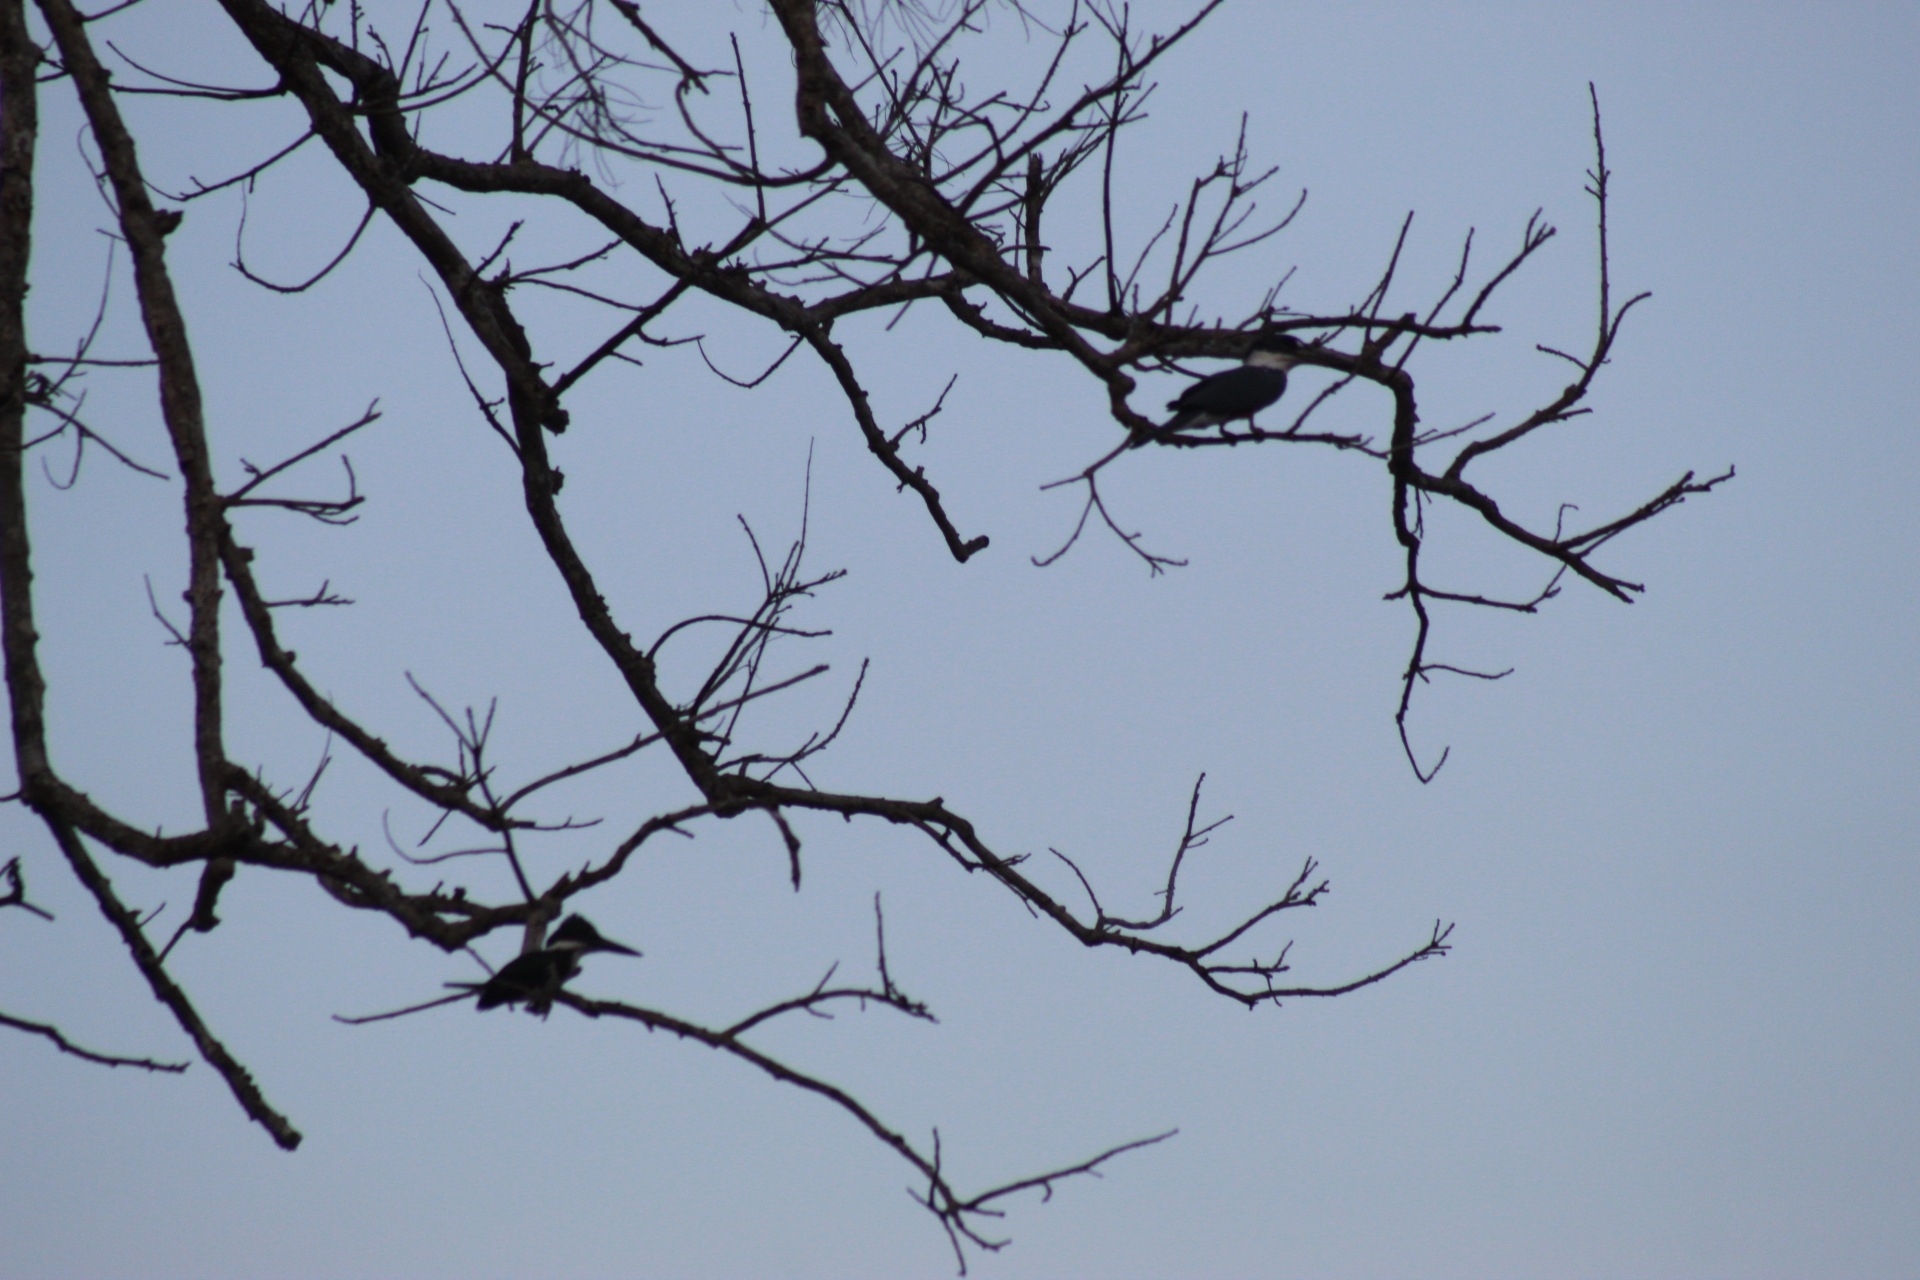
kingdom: Animalia
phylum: Chordata
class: Aves
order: Coraciiformes
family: Alcedinidae
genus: Megaceryle
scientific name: Megaceryle torquata
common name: Ringed kingfisher
